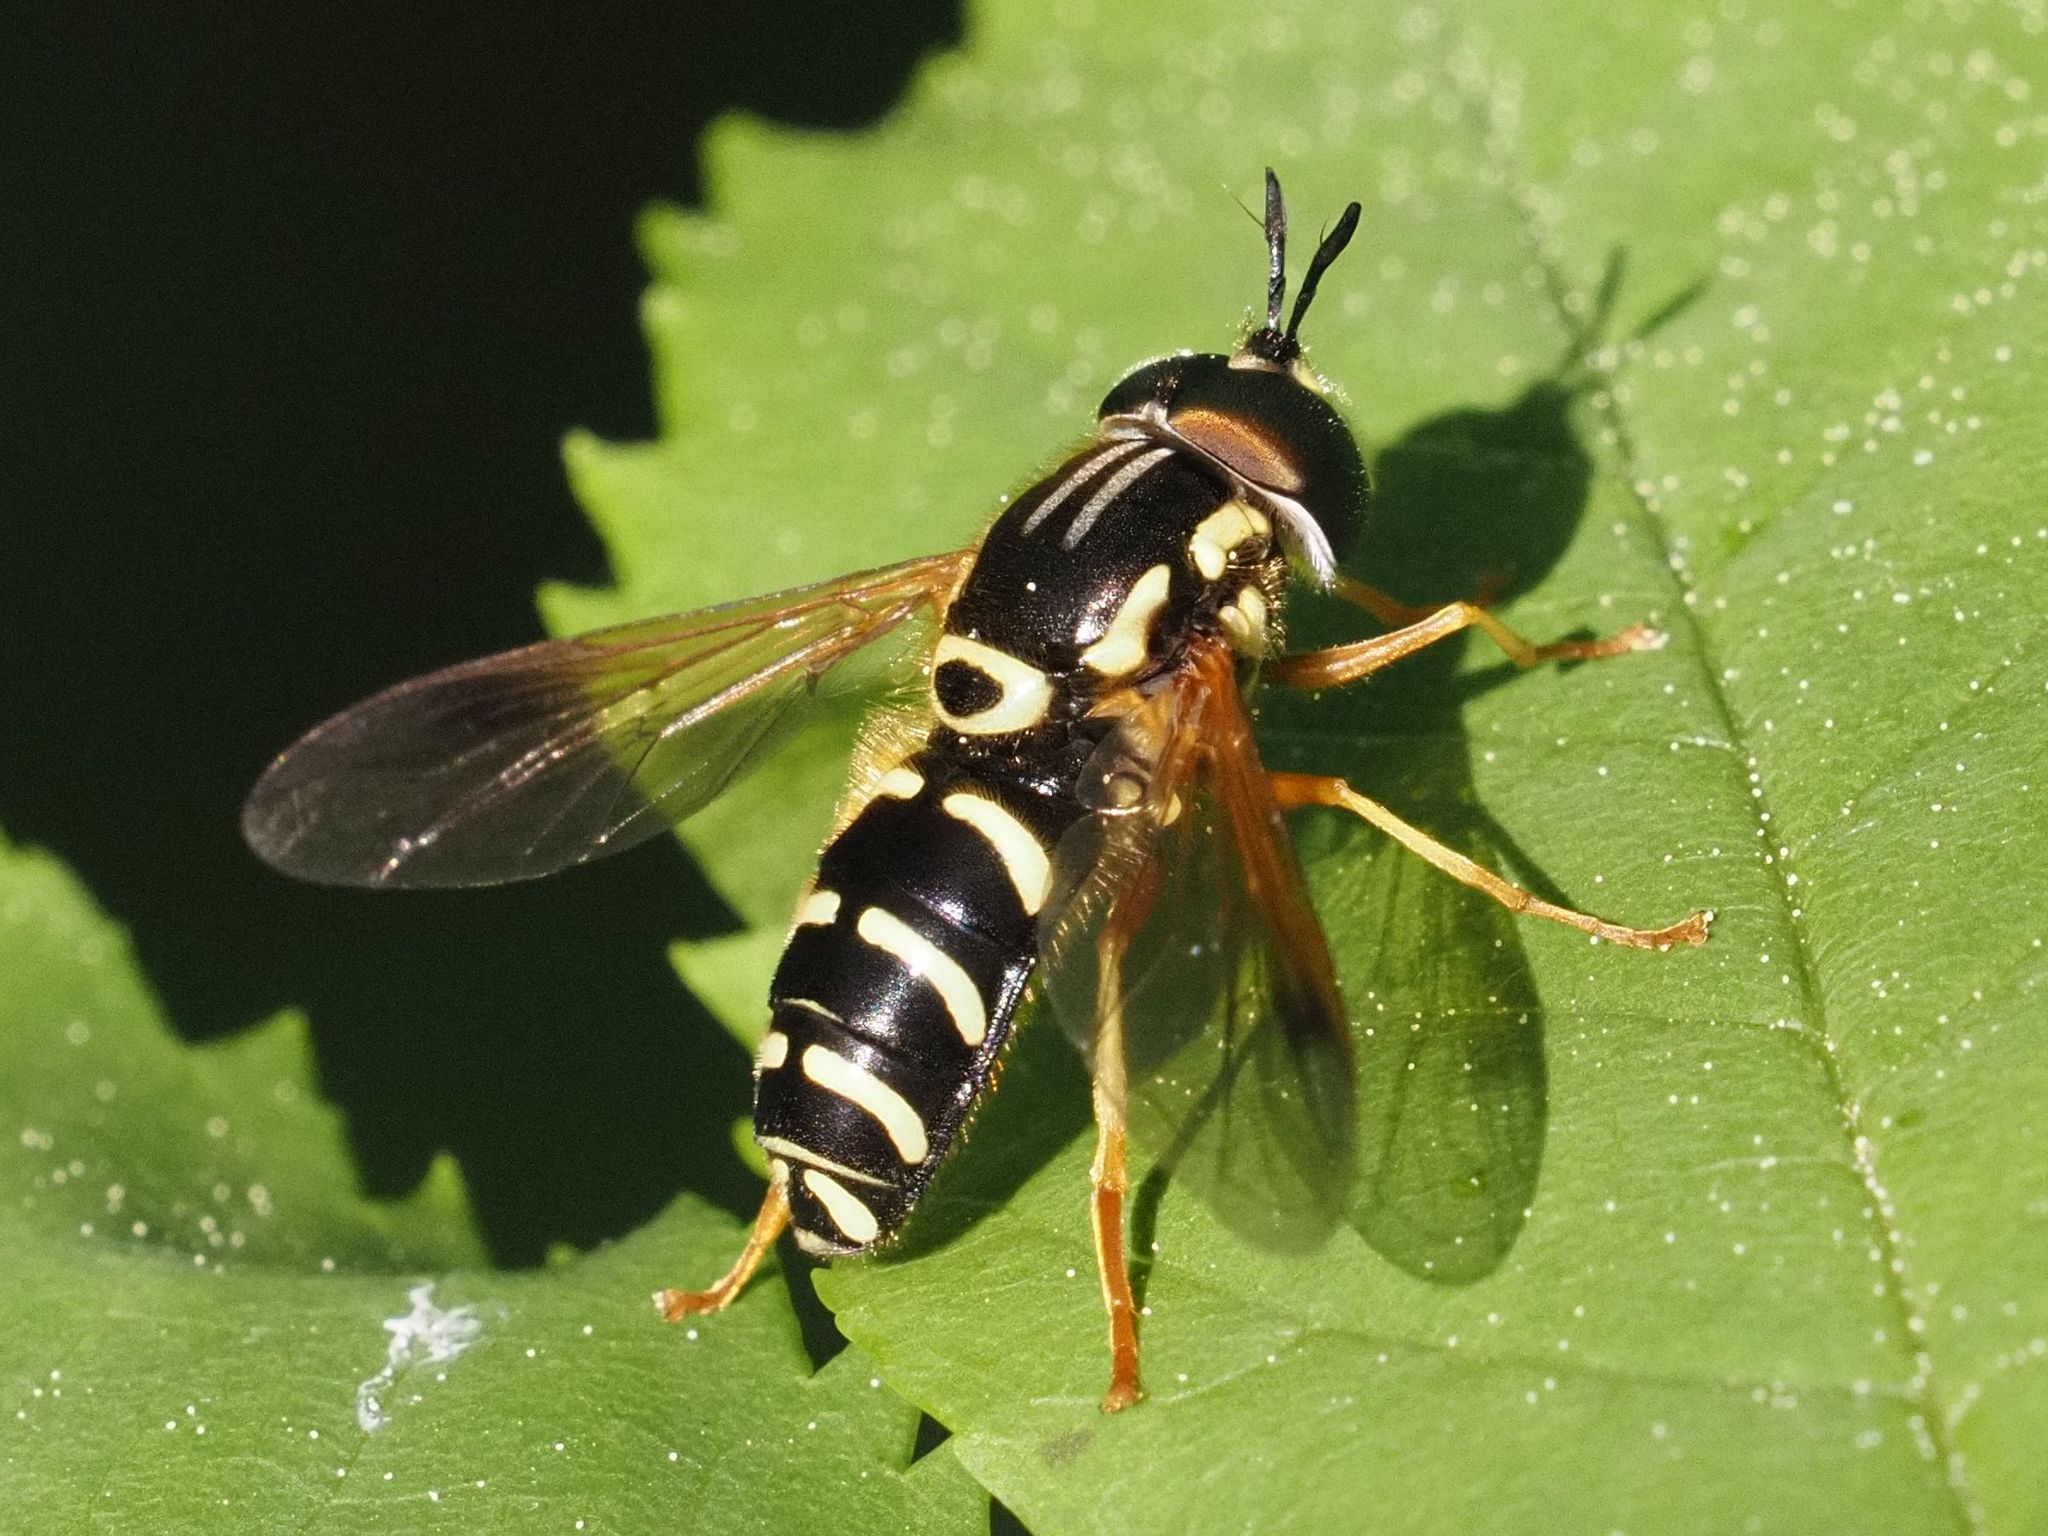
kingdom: Animalia
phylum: Arthropoda
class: Insecta
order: Diptera
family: Syrphidae
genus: Chrysotoxum
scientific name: Chrysotoxum festivum
